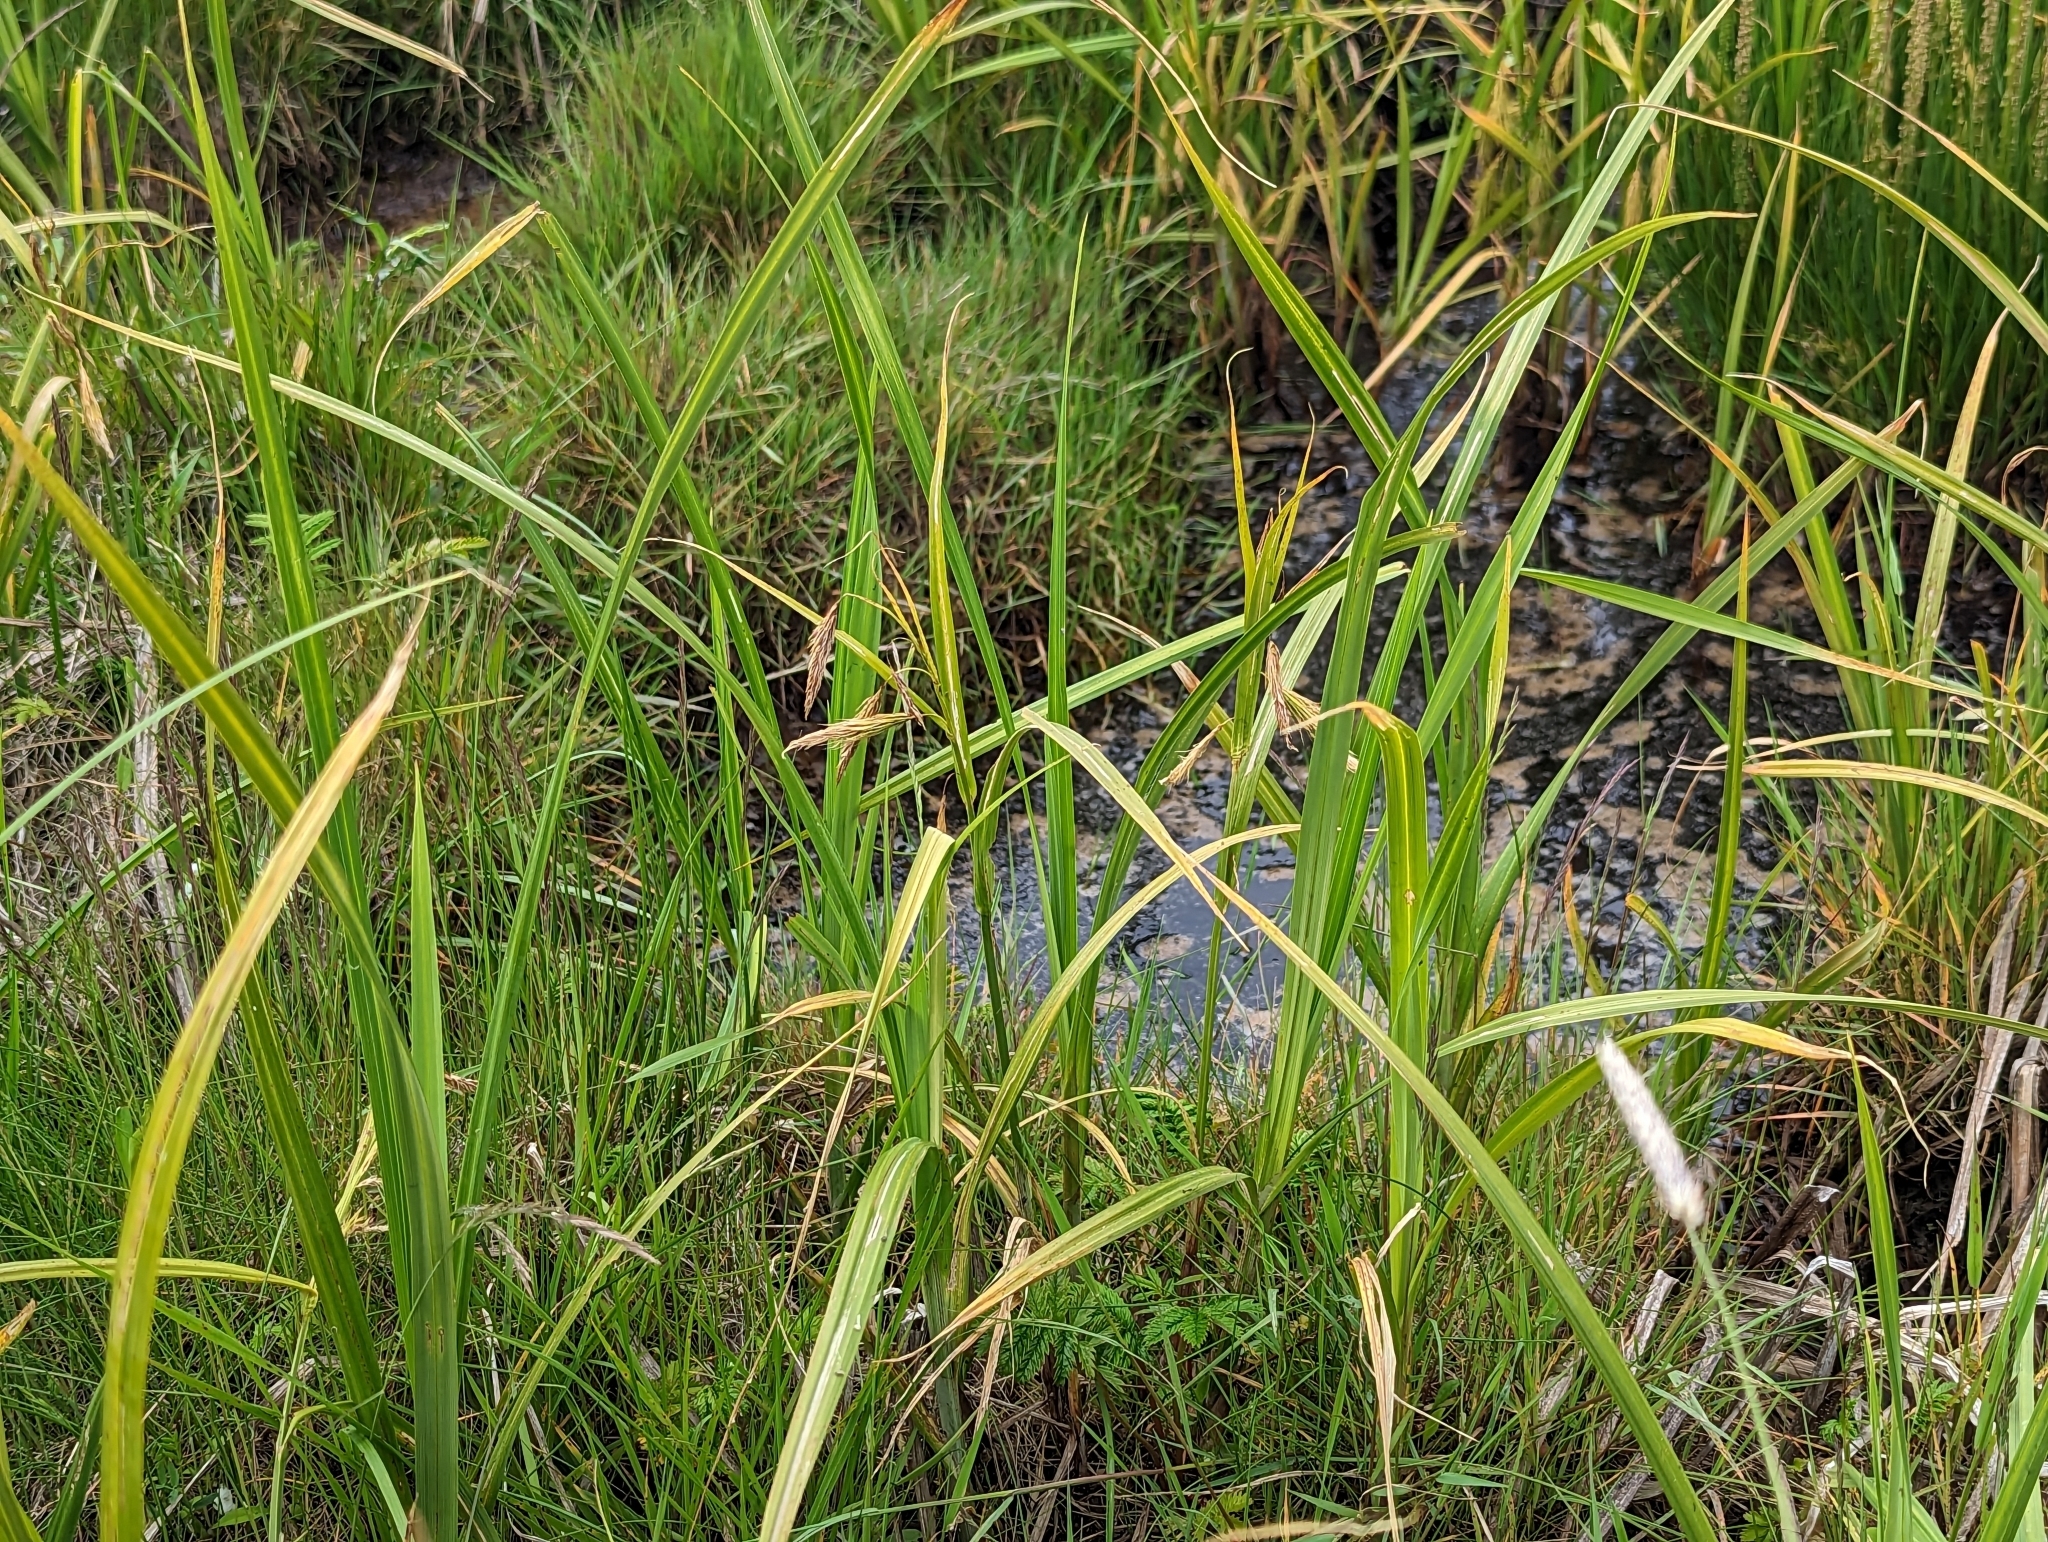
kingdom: Plantae
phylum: Tracheophyta
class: Liliopsida
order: Poales
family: Cyperaceae
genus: Carex
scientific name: Carex paleacea
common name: Chaffy sedge
